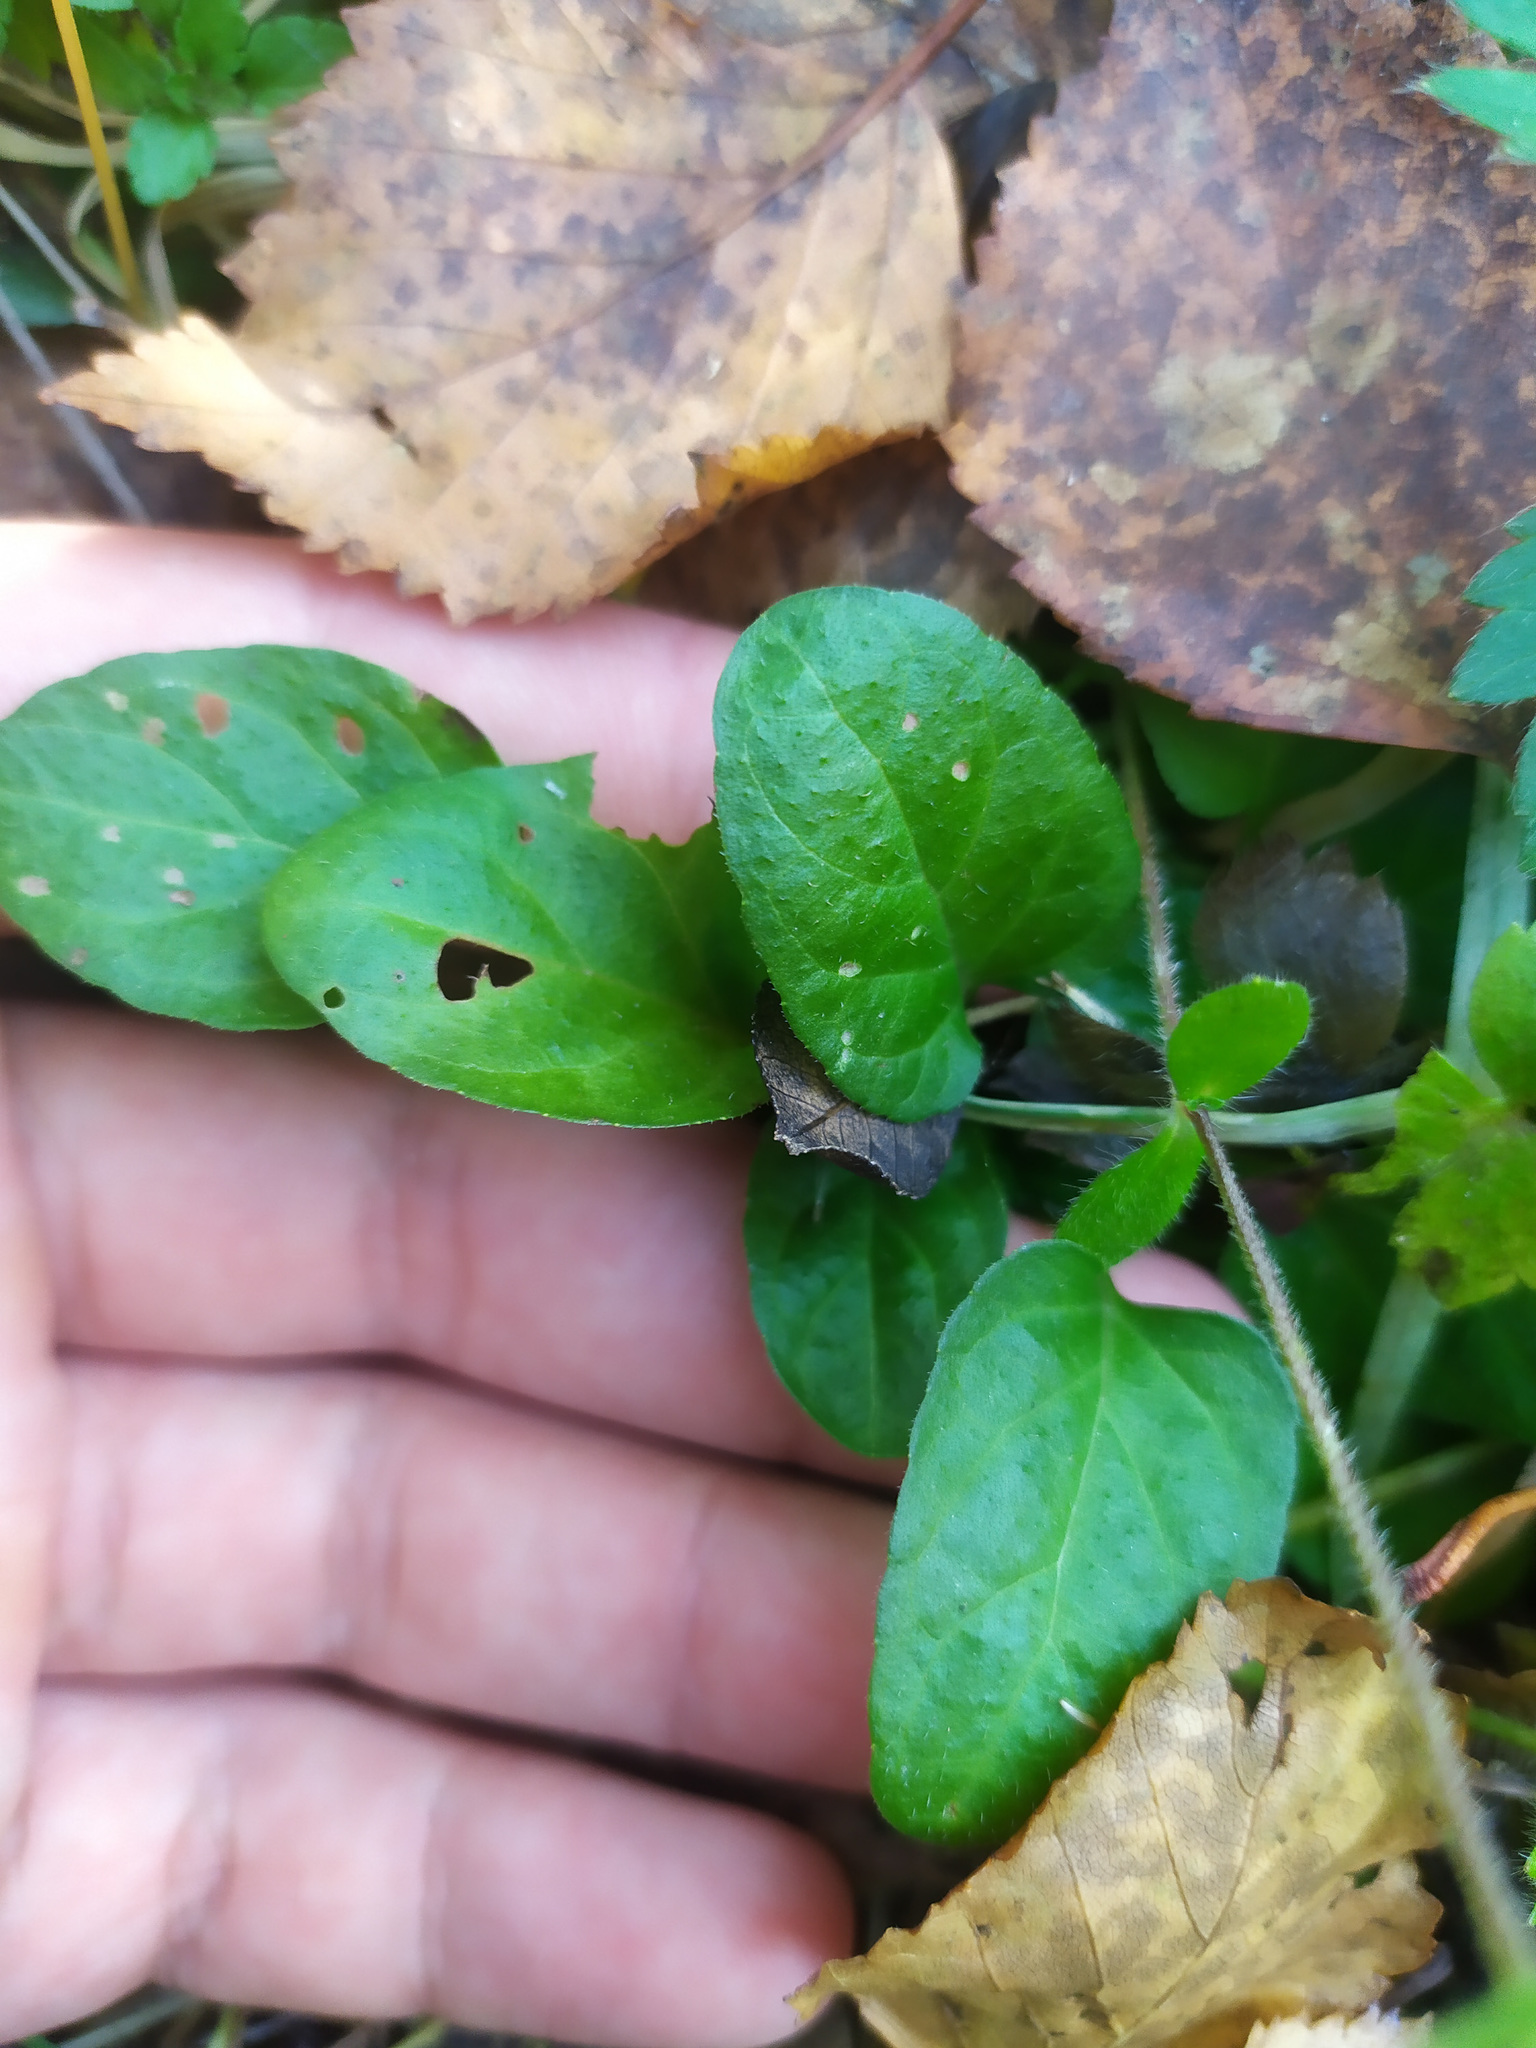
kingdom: Plantae
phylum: Tracheophyta
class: Magnoliopsida
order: Lamiales
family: Lamiaceae
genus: Prunella
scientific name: Prunella vulgaris
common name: Heal-all
